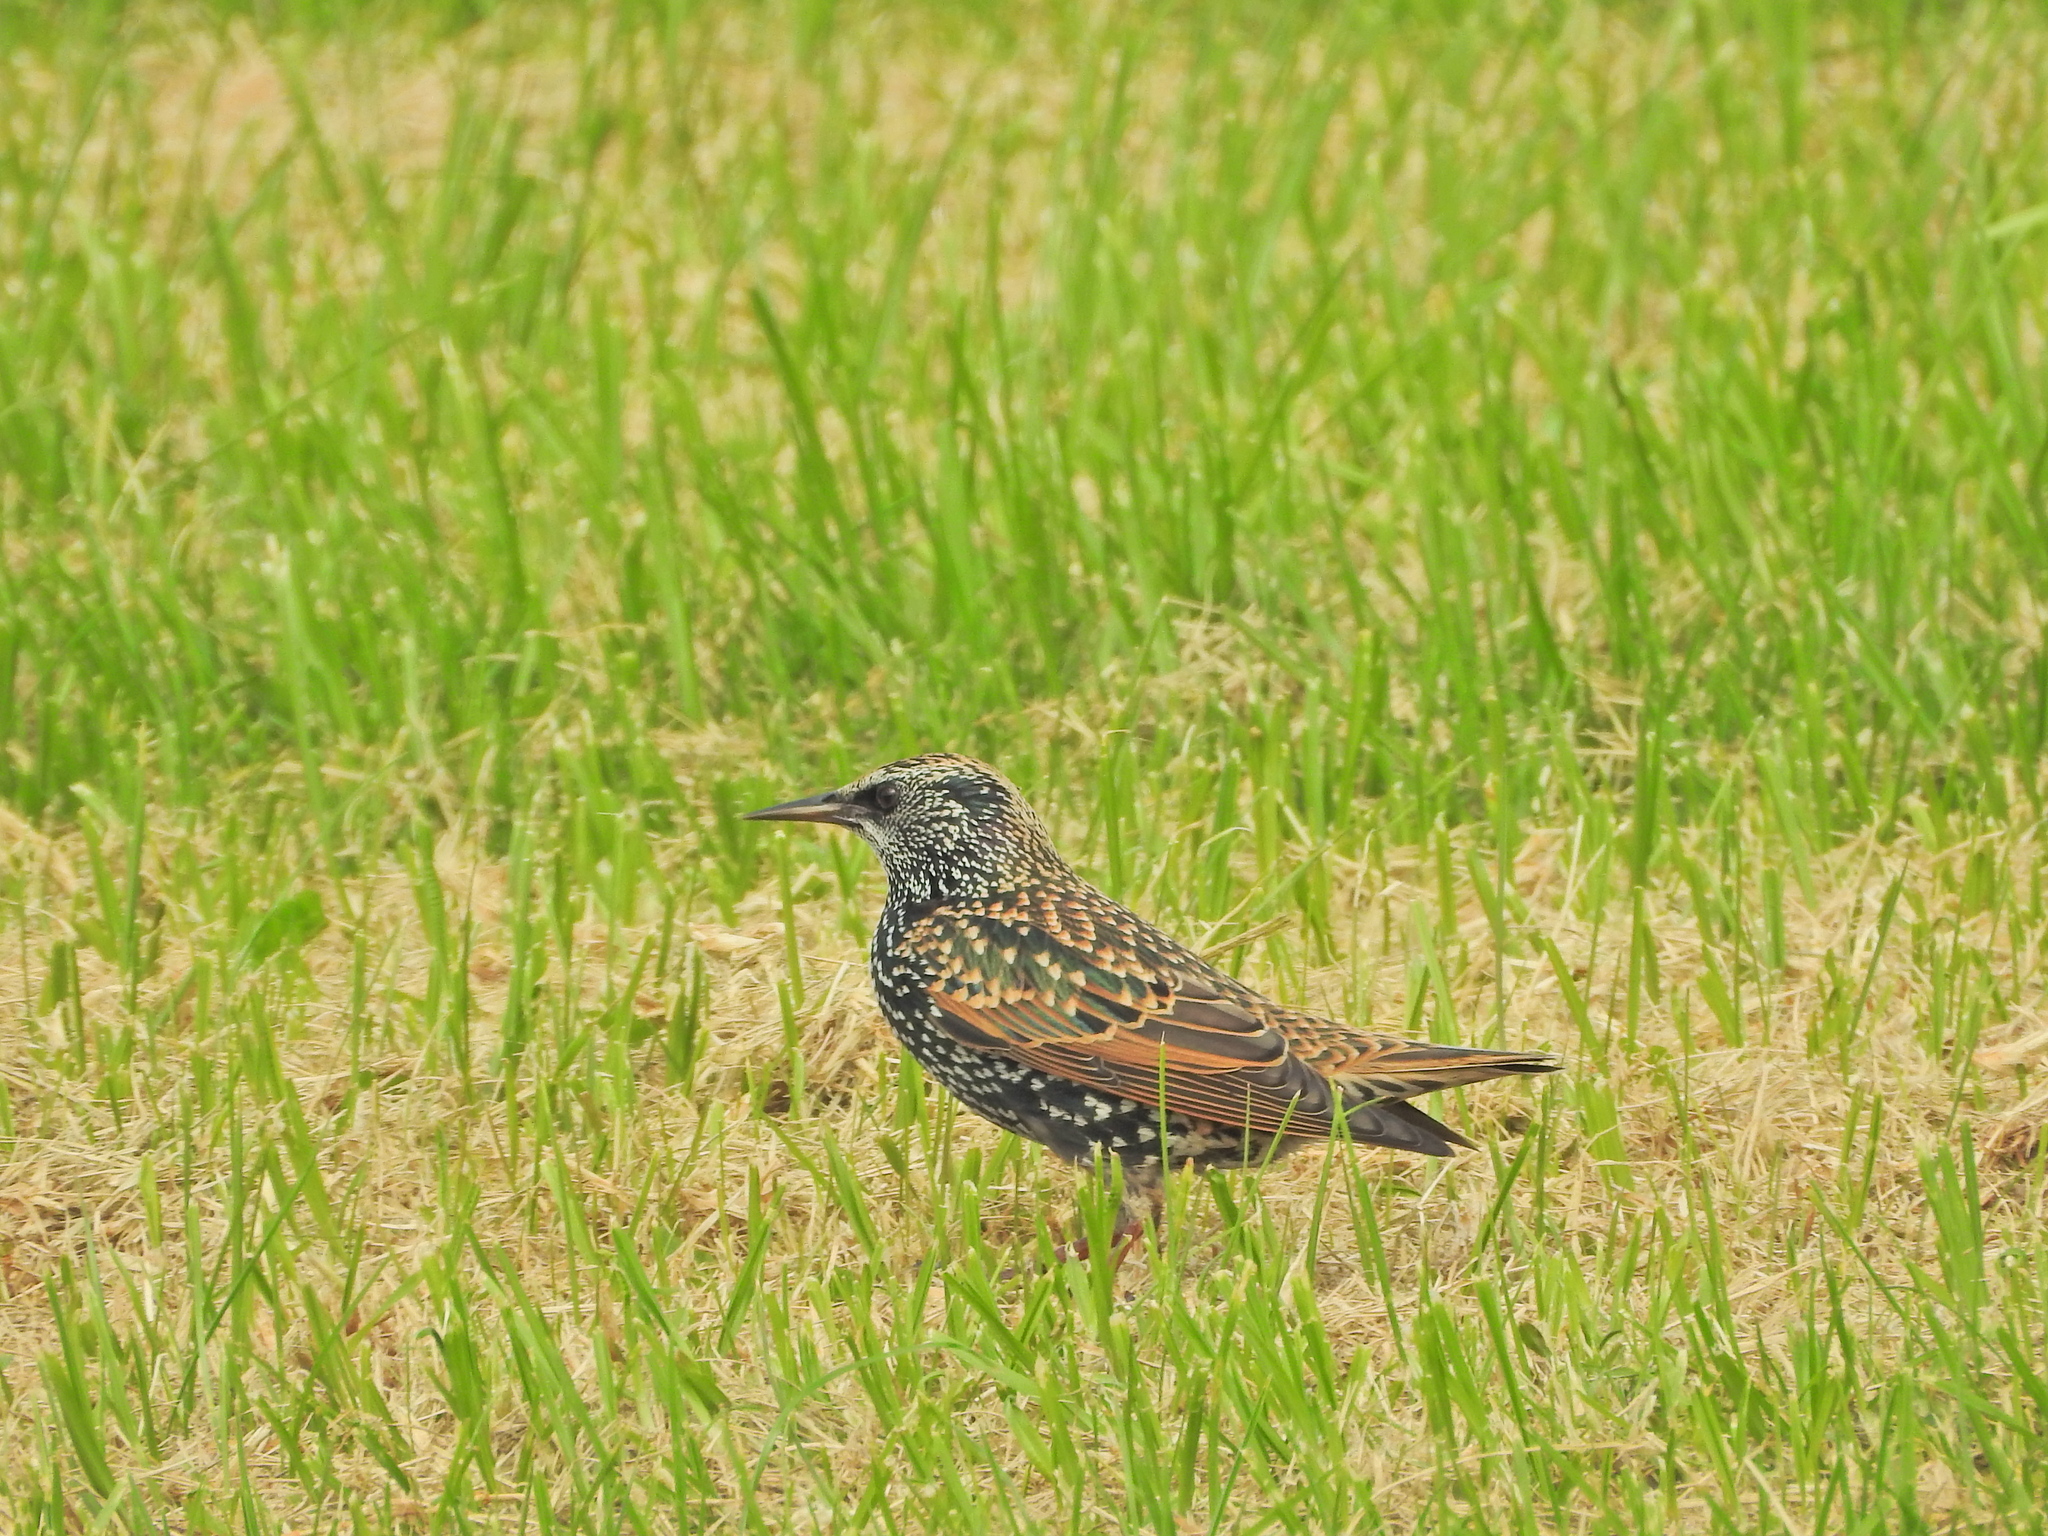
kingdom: Animalia
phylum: Chordata
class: Aves
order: Passeriformes
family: Sturnidae
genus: Sturnus
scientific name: Sturnus vulgaris
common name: Common starling
